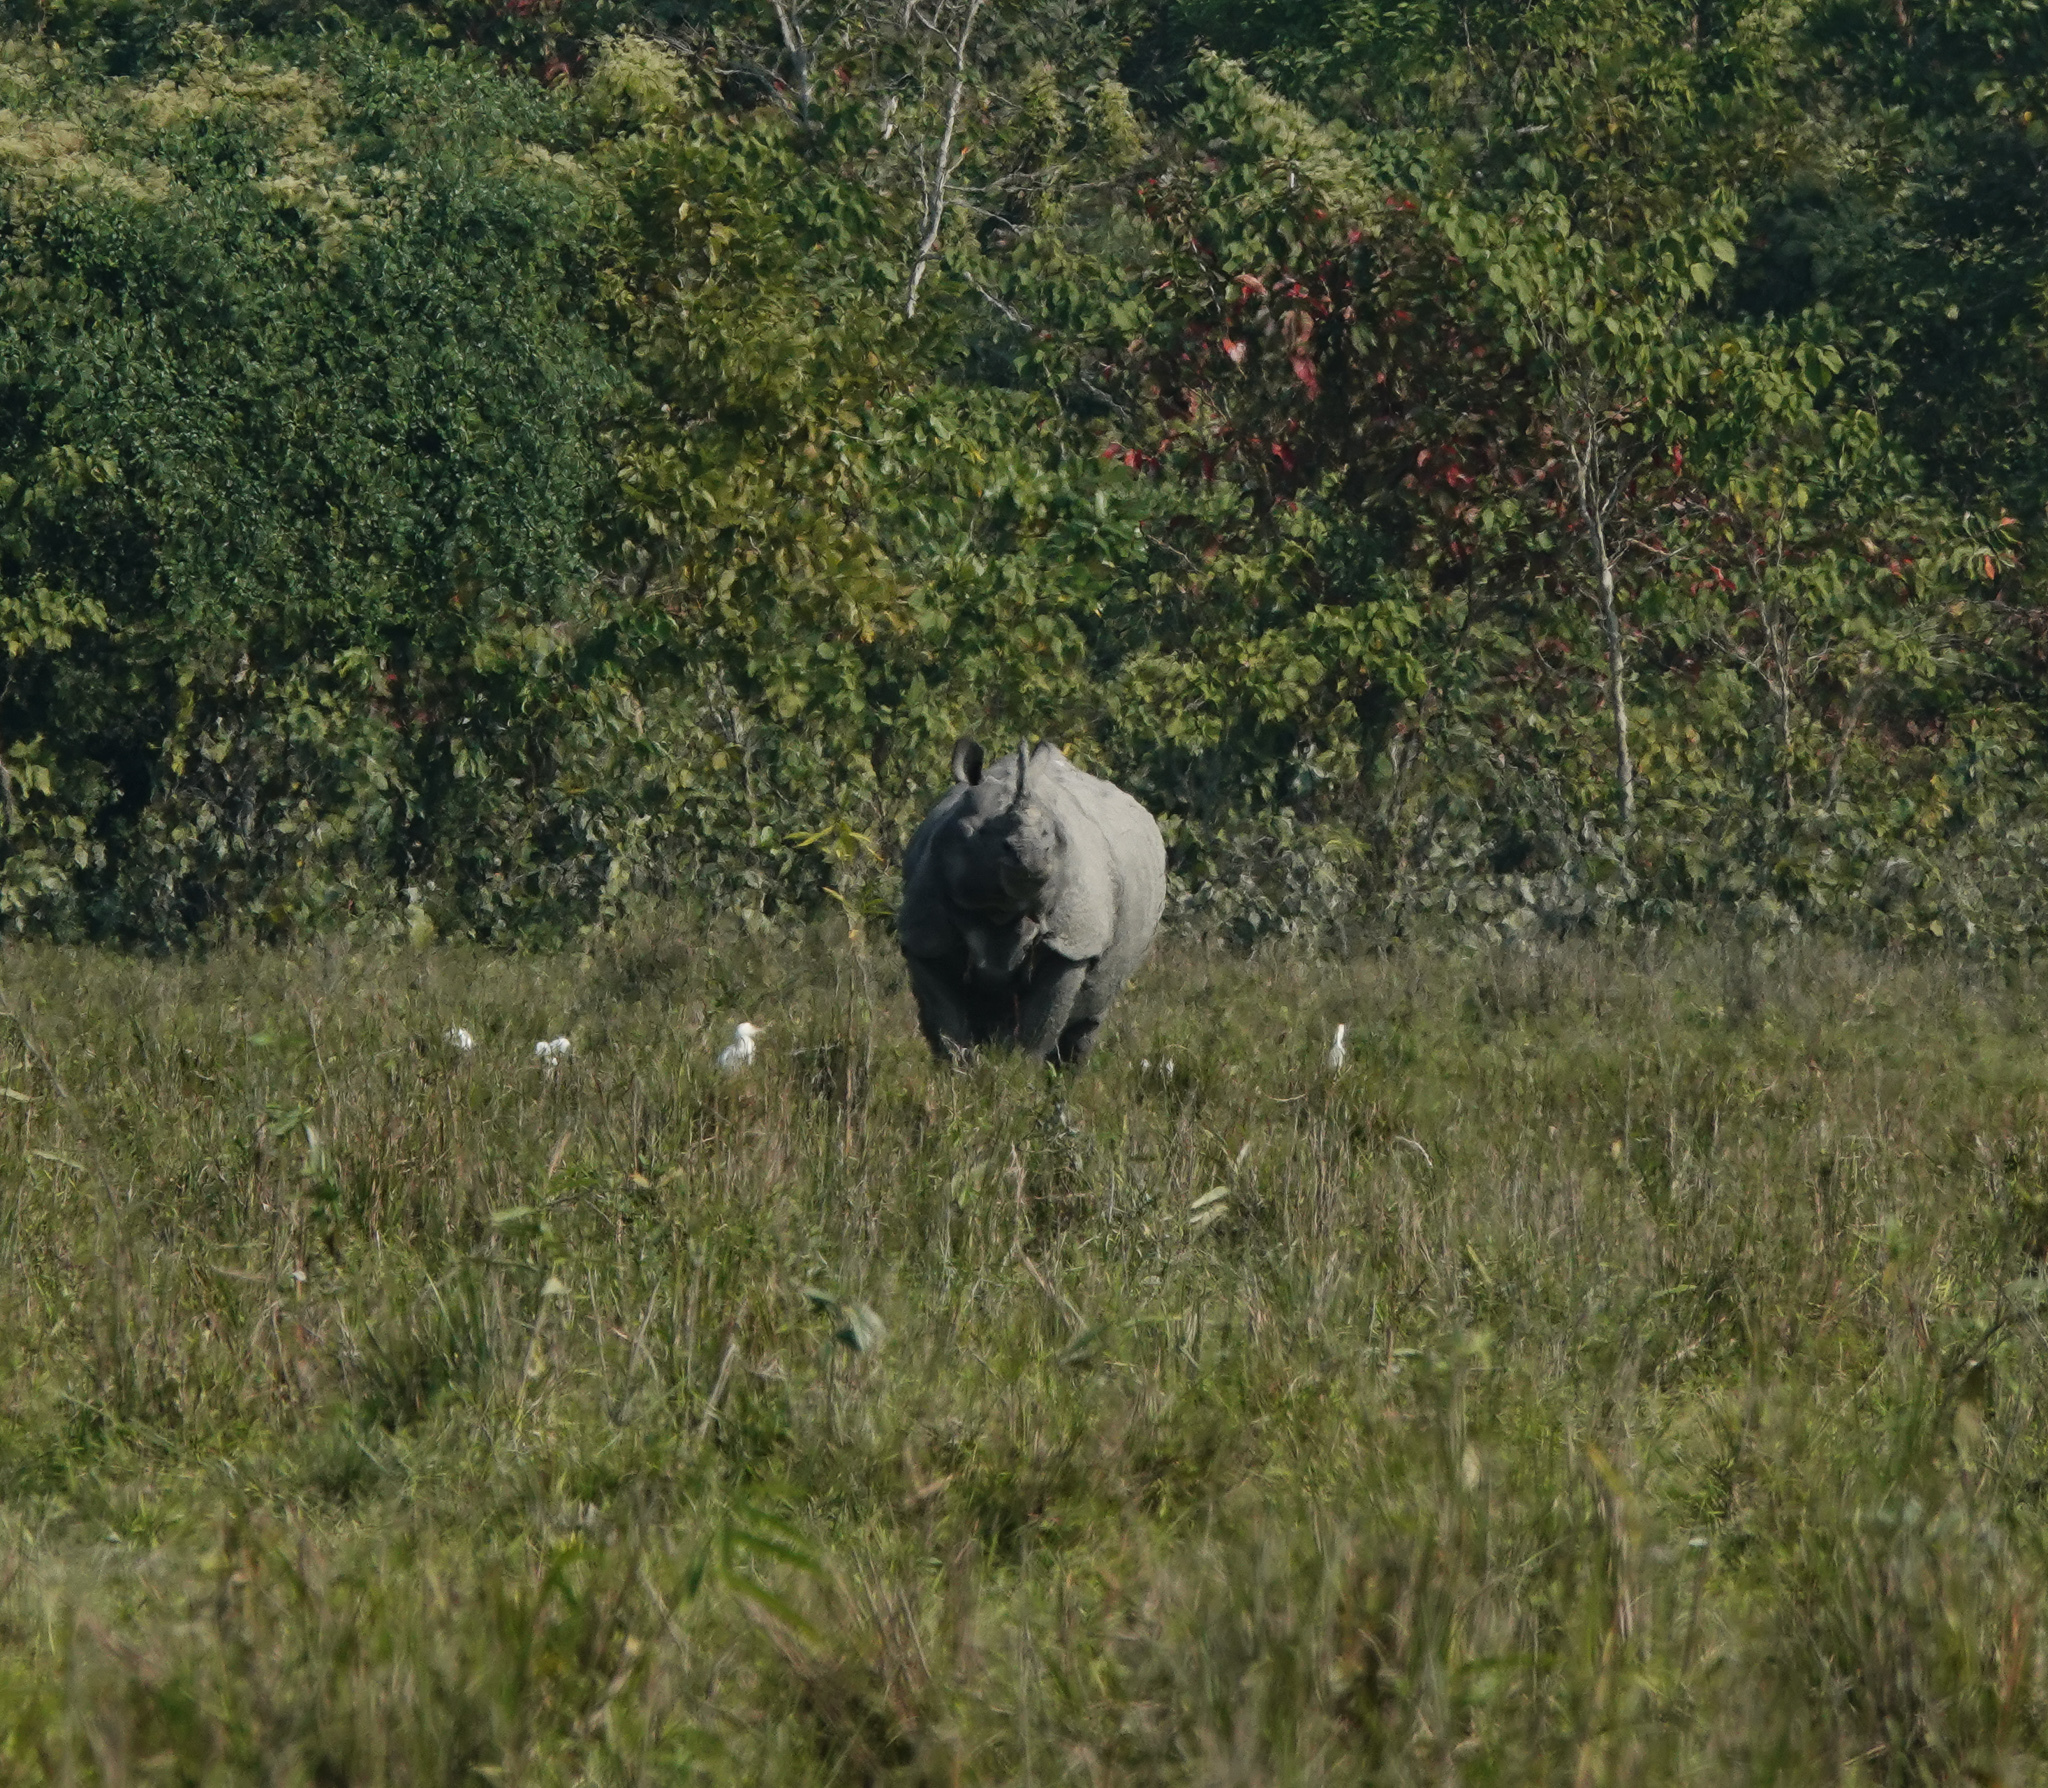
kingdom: Animalia
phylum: Chordata
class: Mammalia
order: Perissodactyla
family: Rhinocerotidae
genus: Rhinoceros
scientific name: Rhinoceros unicornis
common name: Indian rhinoceros
